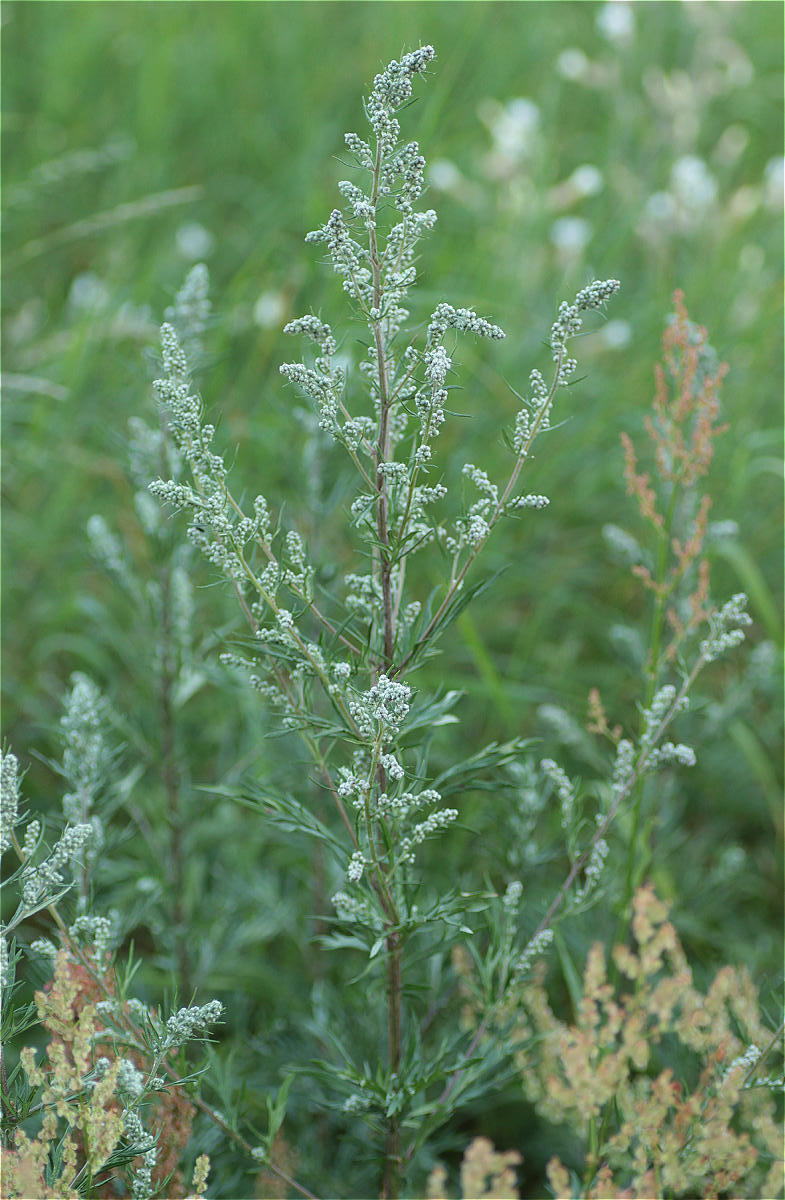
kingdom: Plantae
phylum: Tracheophyta
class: Magnoliopsida
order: Asterales
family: Asteraceae
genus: Artemisia
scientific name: Artemisia vulgaris
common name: Mugwort
